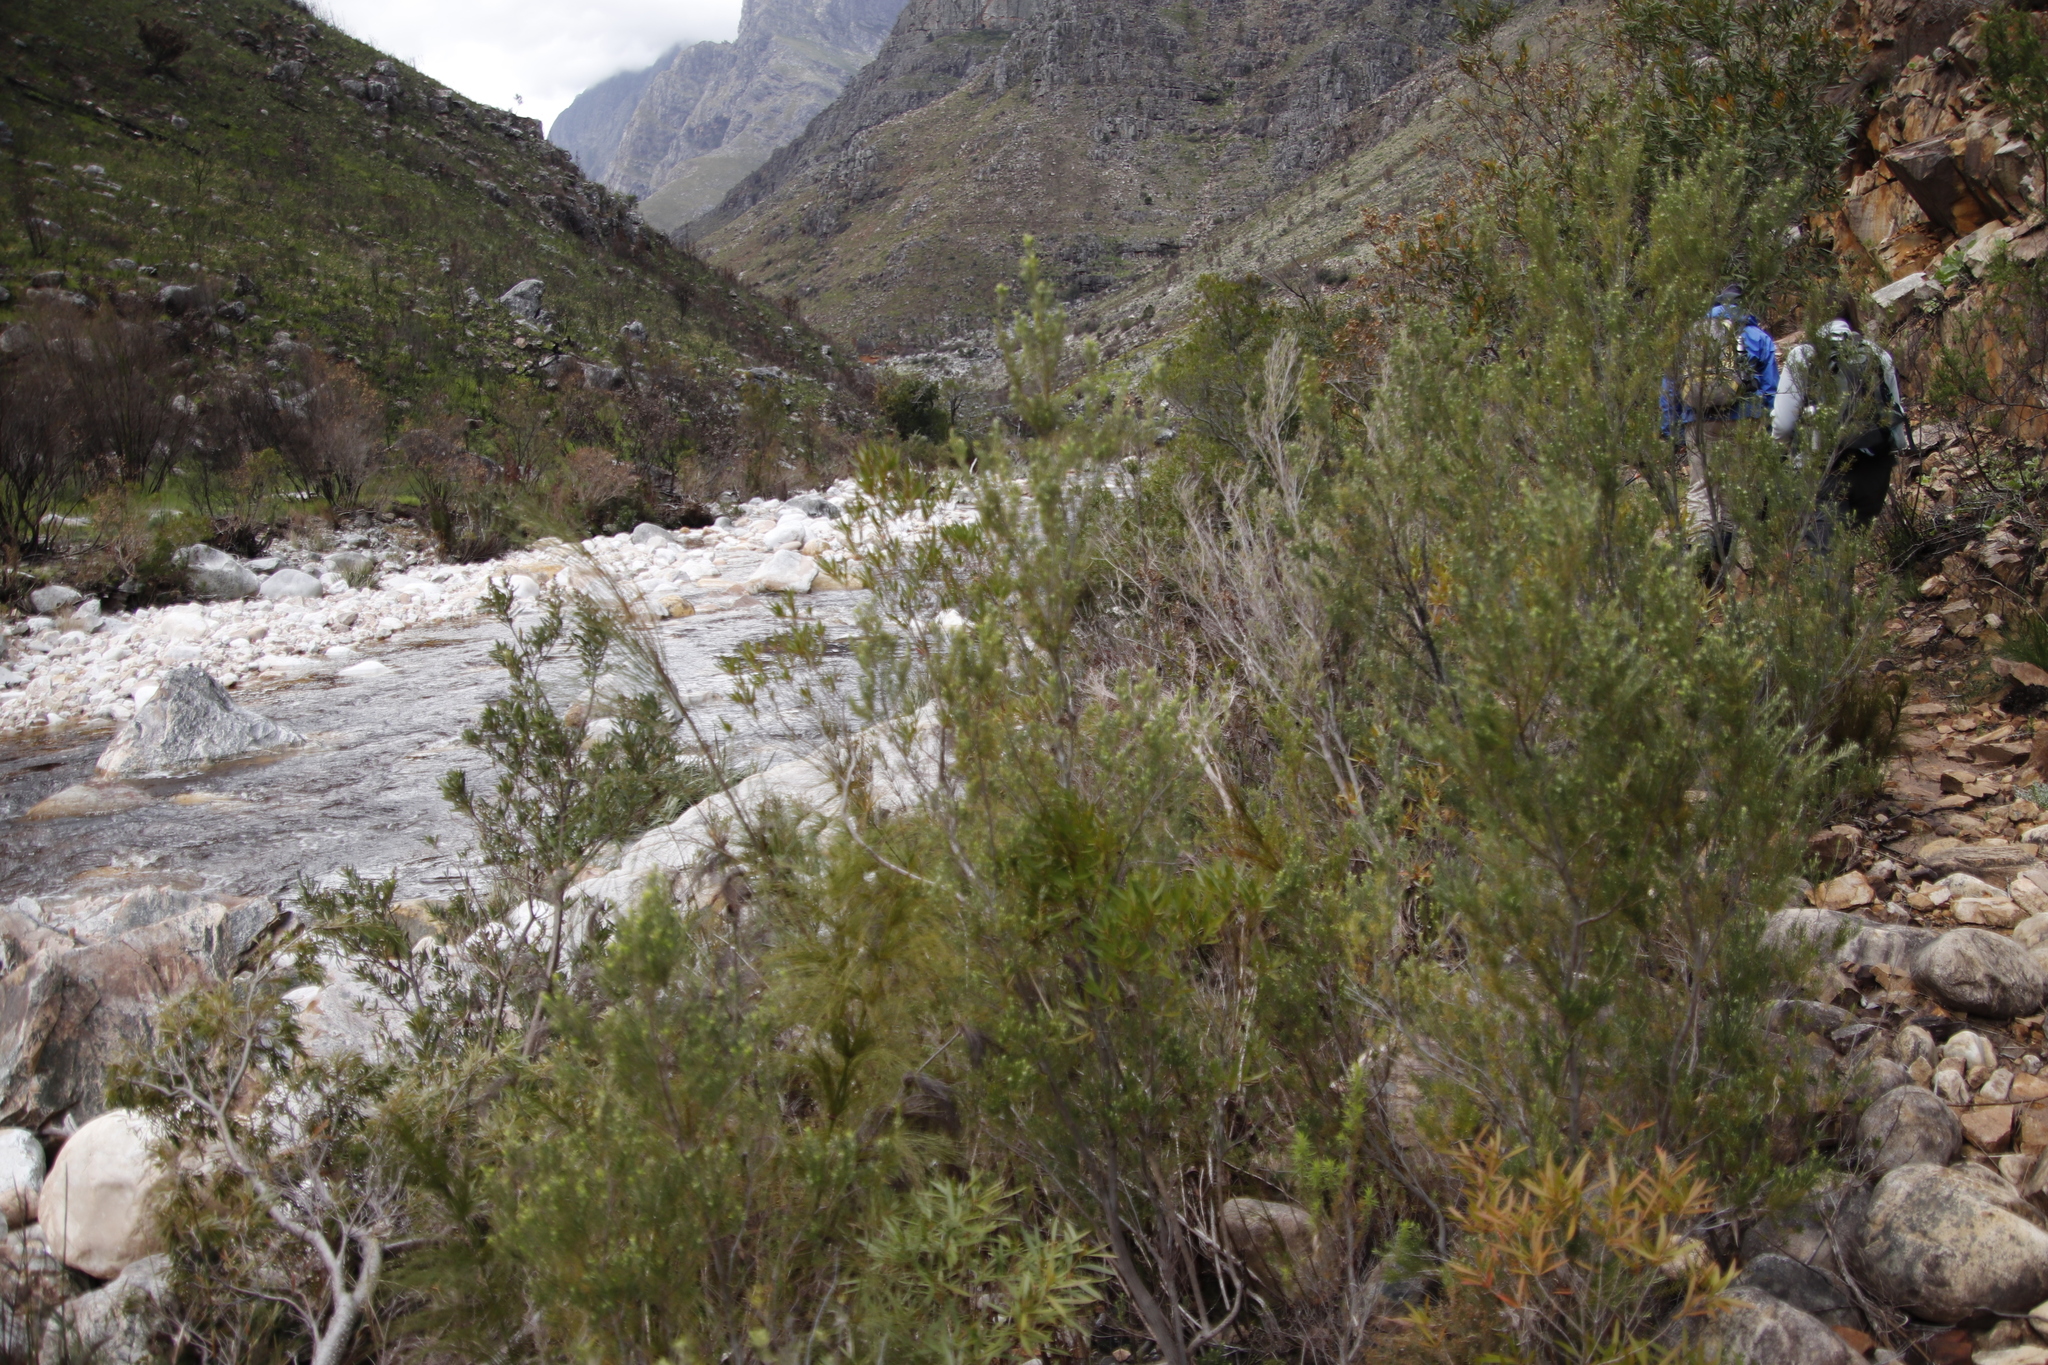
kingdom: Plantae
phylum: Tracheophyta
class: Magnoliopsida
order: Ericales
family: Ericaceae
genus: Erica
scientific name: Erica caffra
